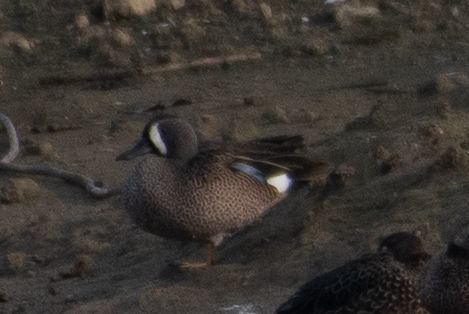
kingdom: Animalia
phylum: Chordata
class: Aves
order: Anseriformes
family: Anatidae
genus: Spatula
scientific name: Spatula discors
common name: Blue-winged teal
